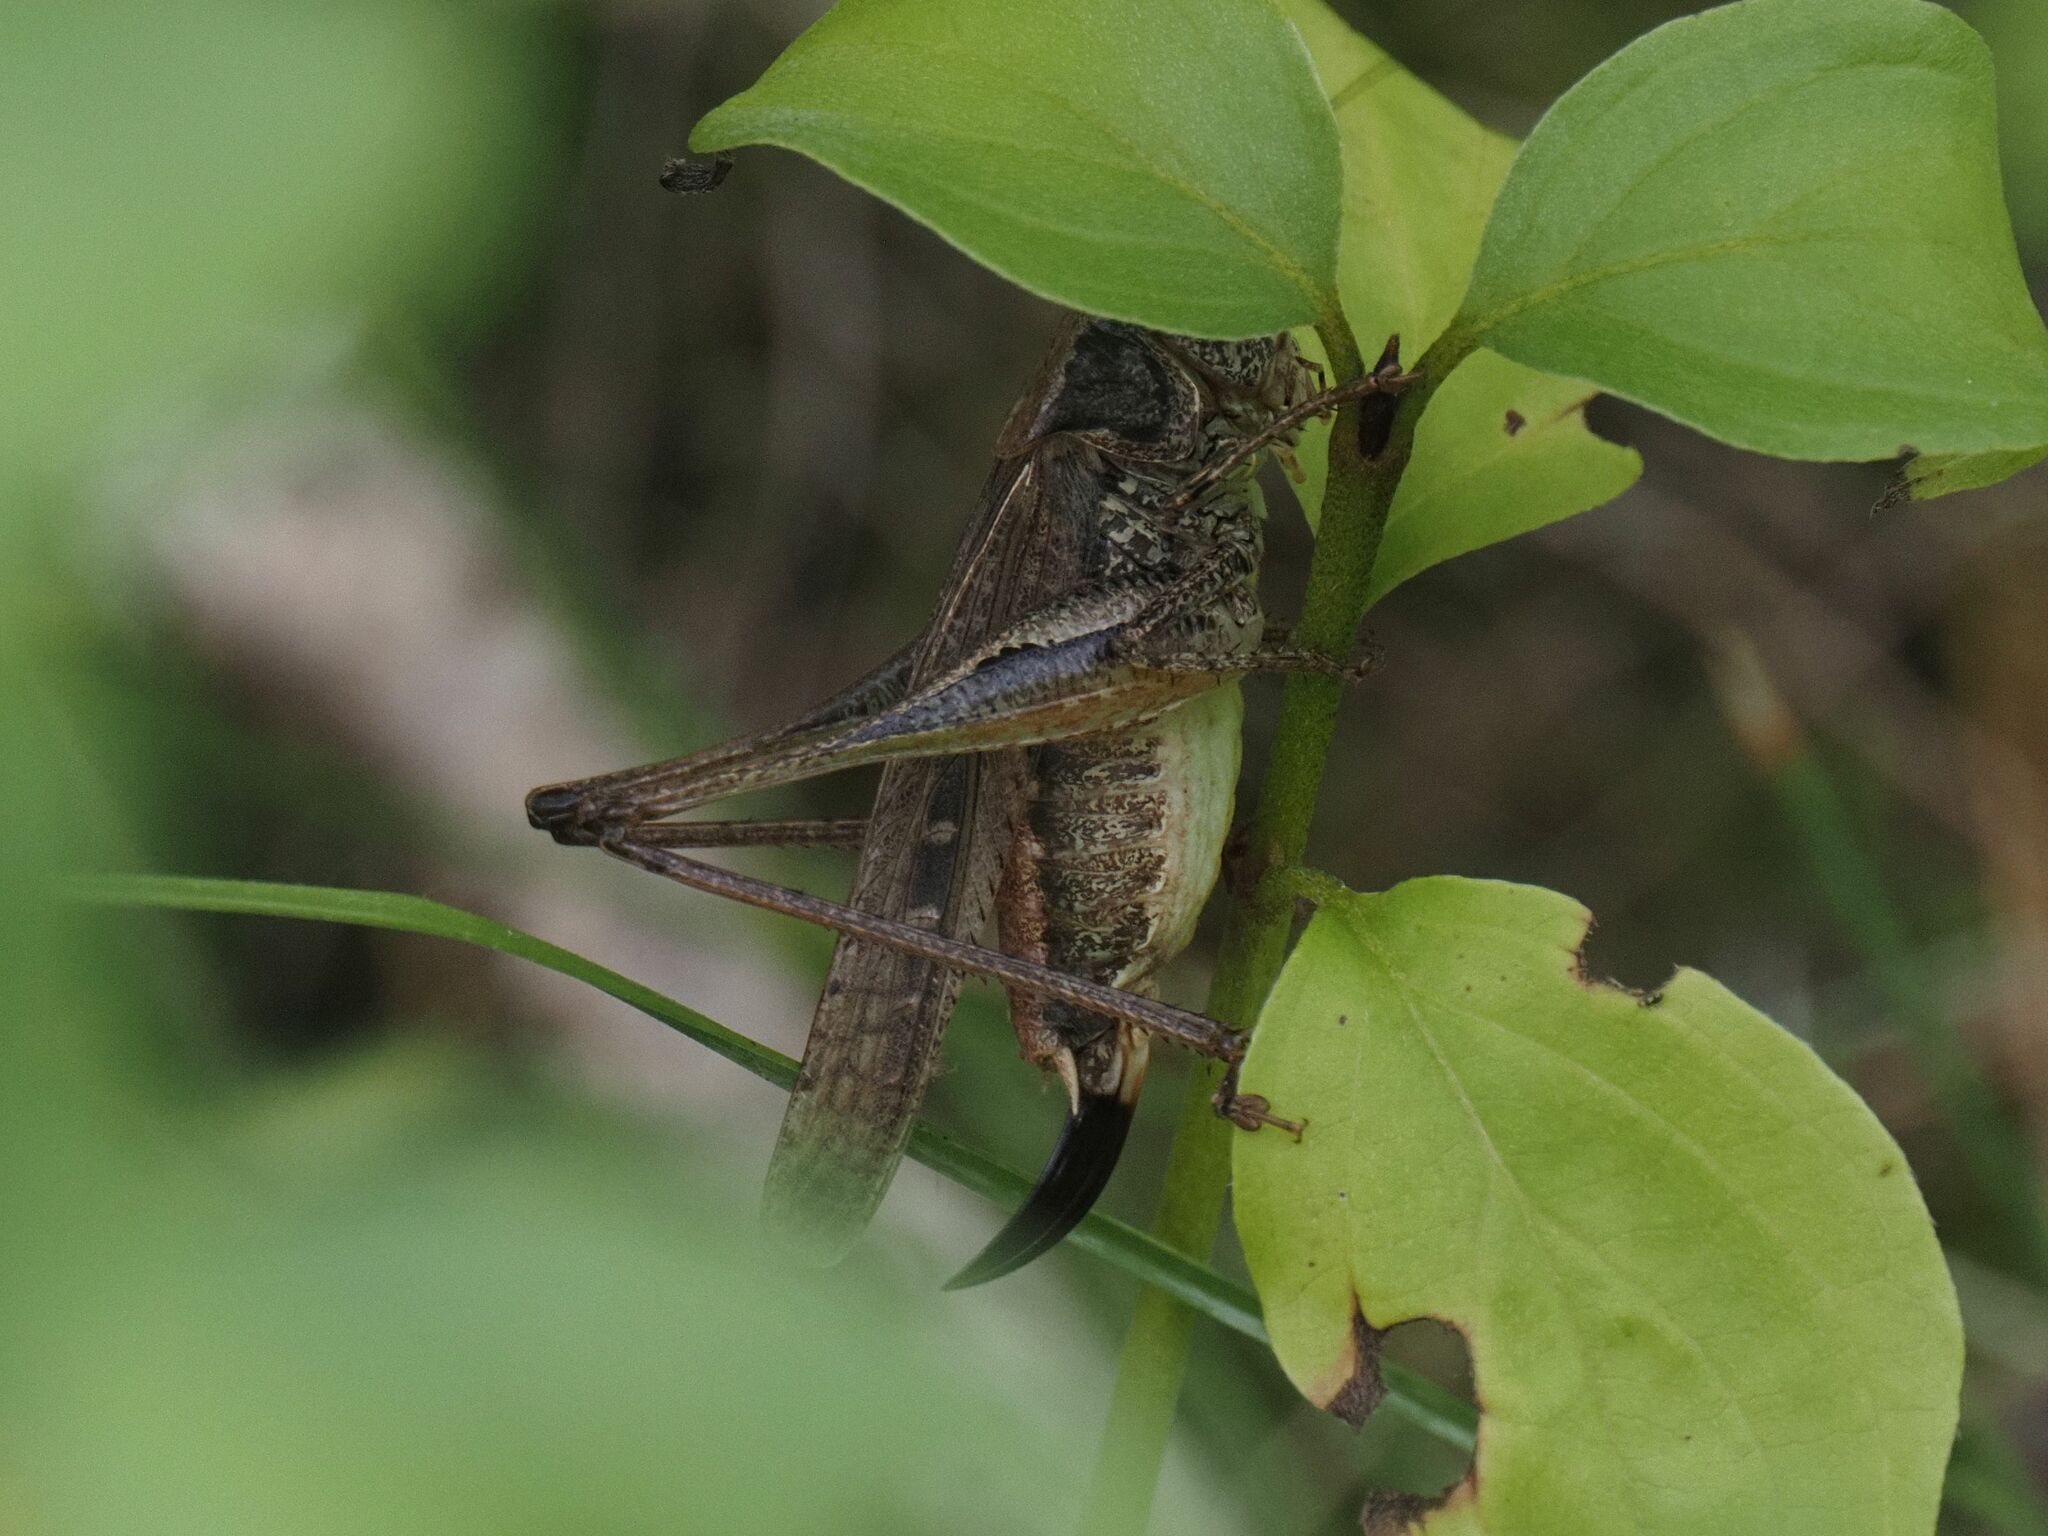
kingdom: Animalia
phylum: Arthropoda
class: Insecta
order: Orthoptera
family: Tettigoniidae
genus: Platycleis
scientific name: Platycleis grisea
